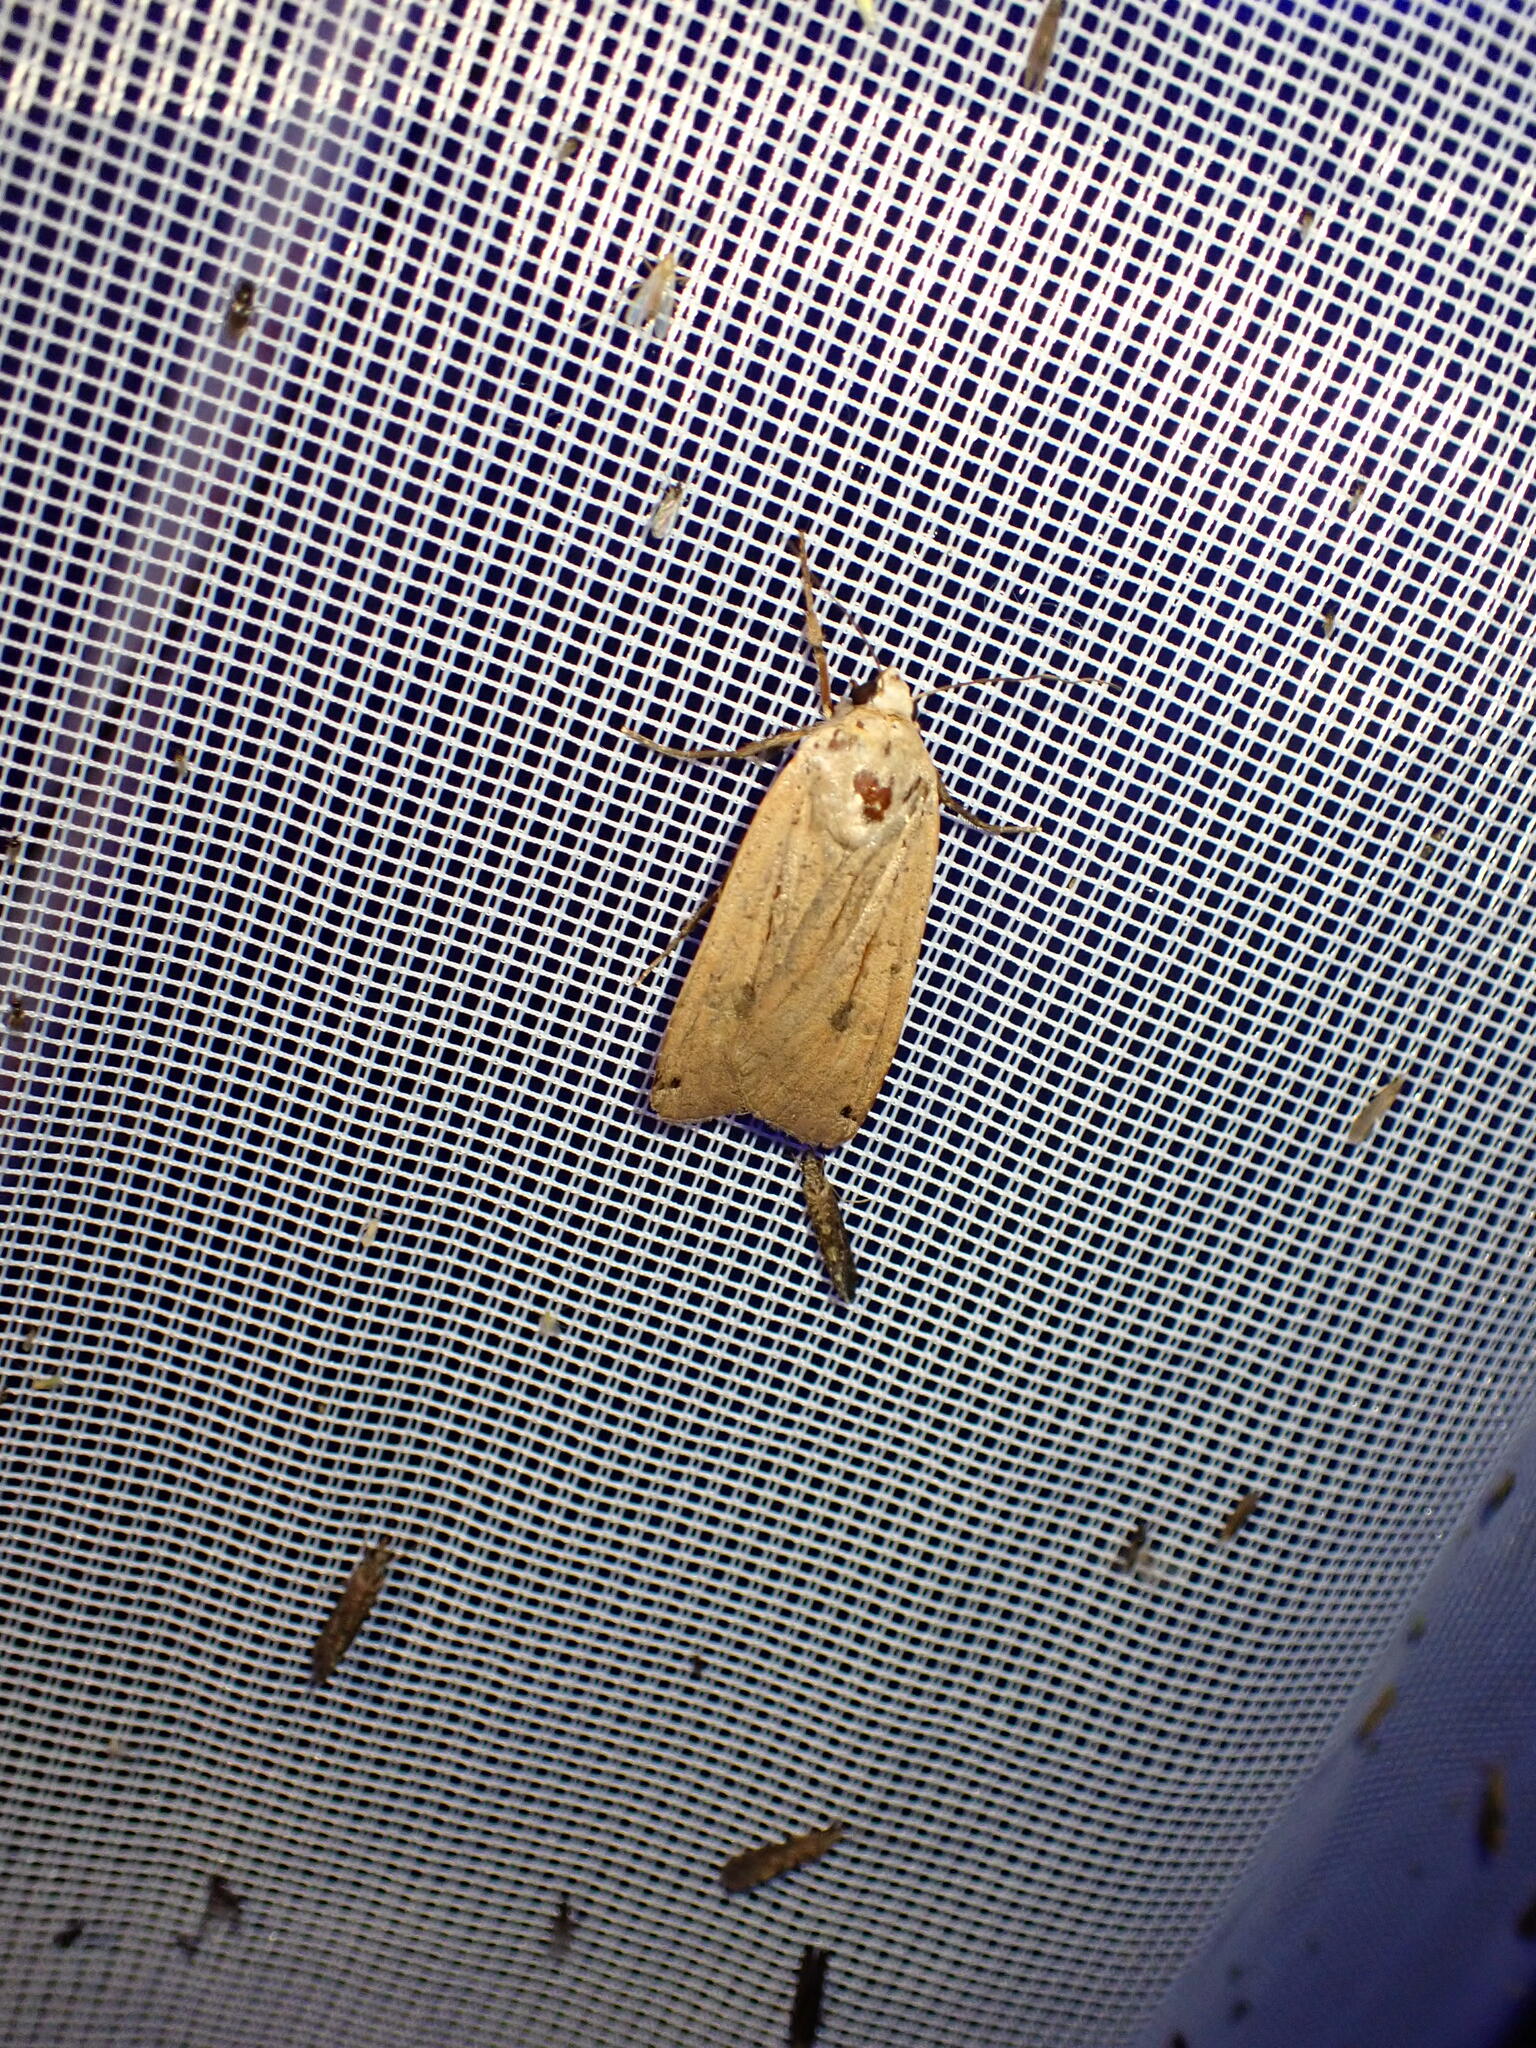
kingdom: Animalia
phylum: Arthropoda
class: Insecta
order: Lepidoptera
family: Noctuidae
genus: Noctua
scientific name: Noctua pronuba
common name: Large yellow underwing
